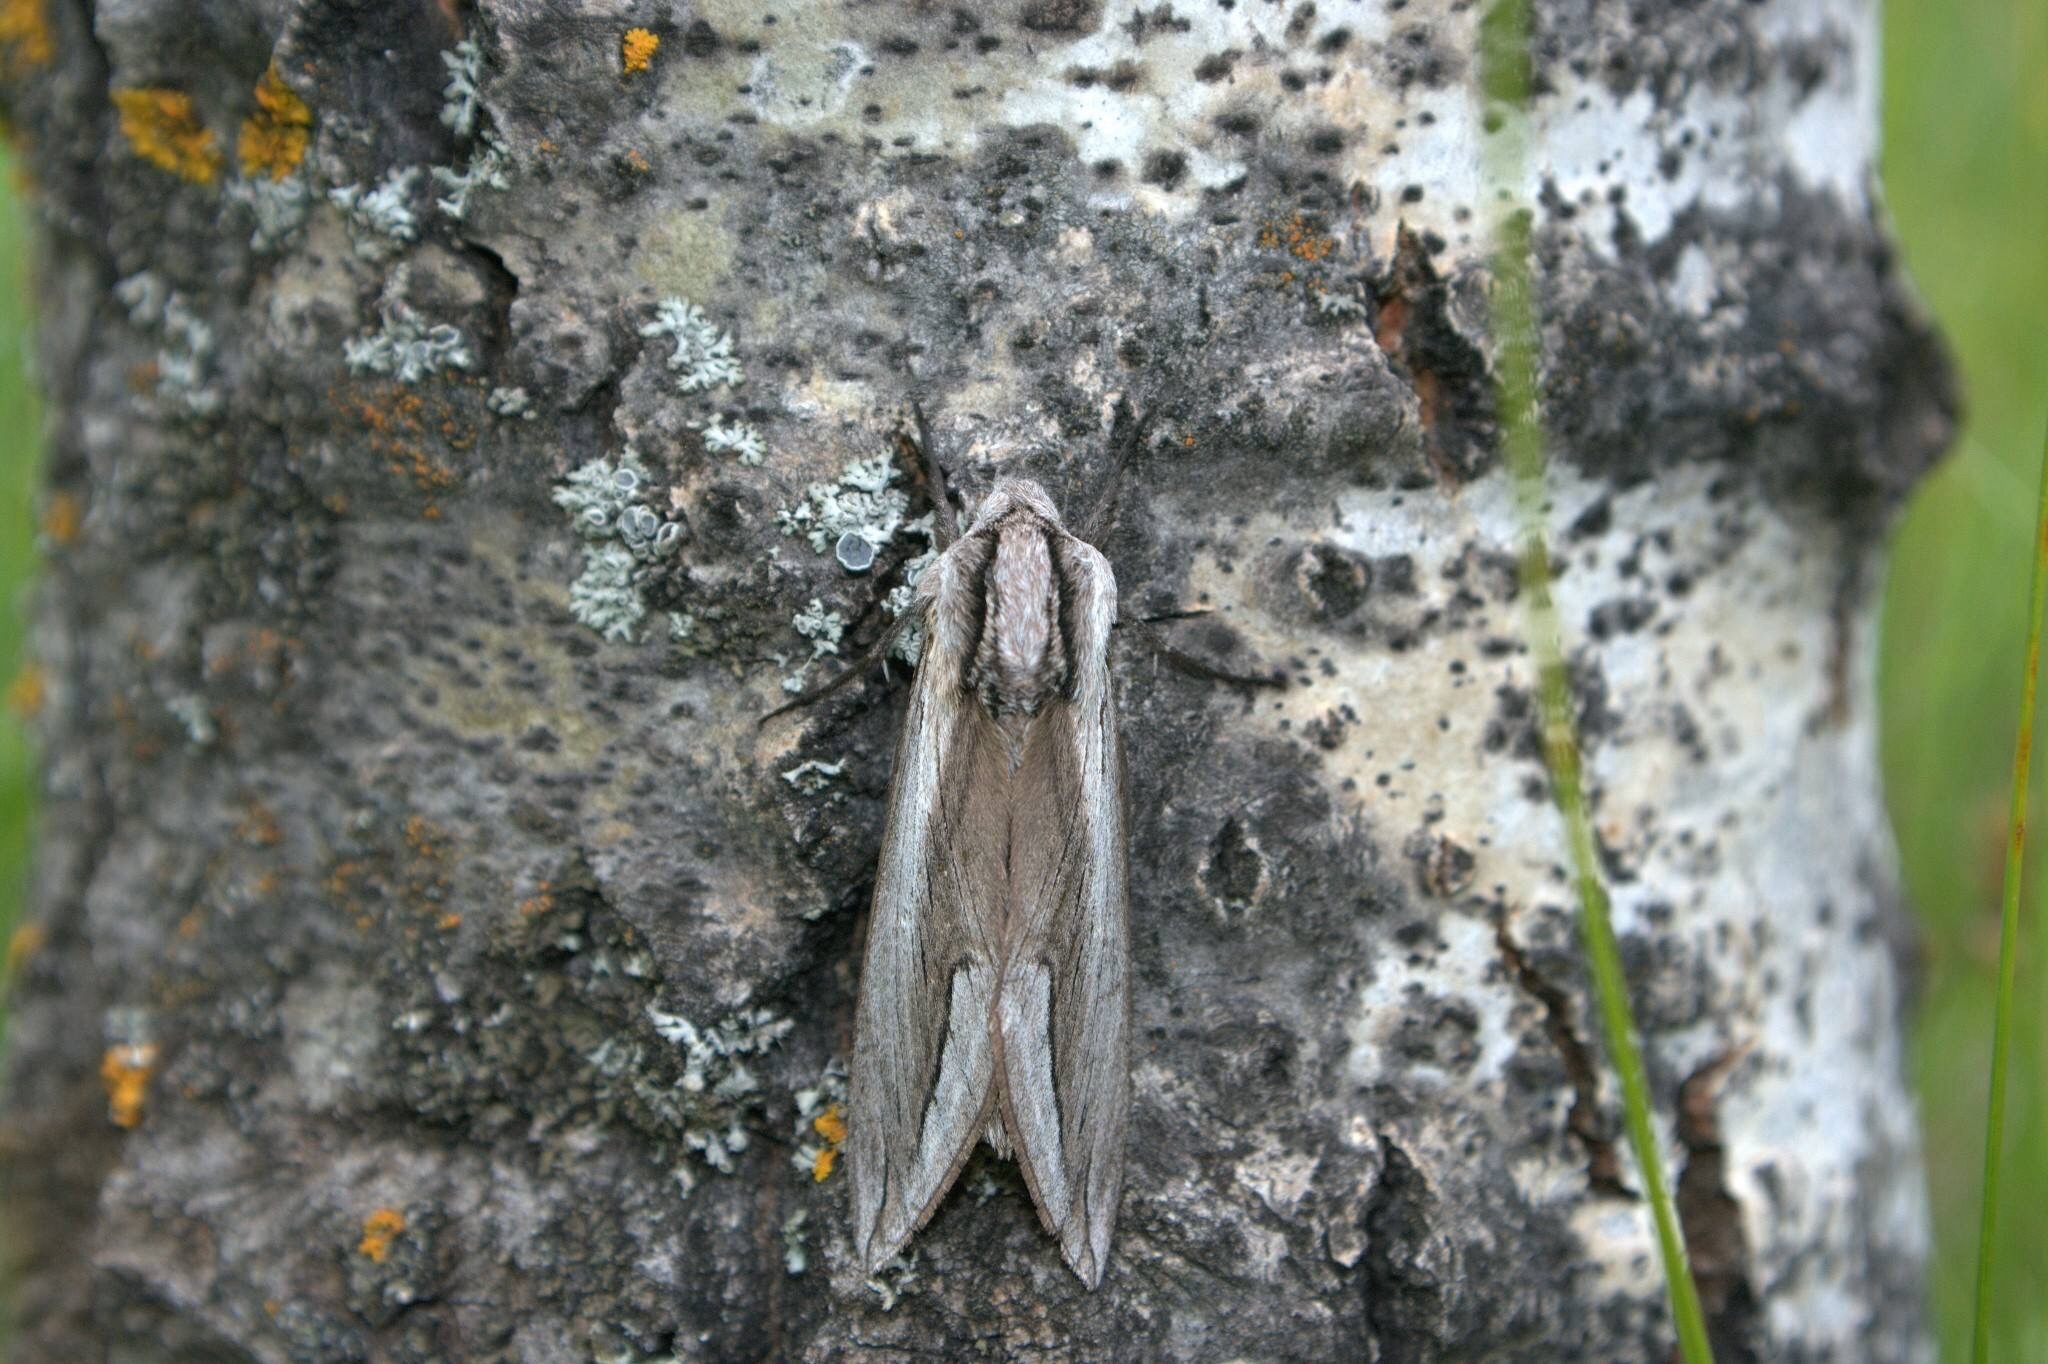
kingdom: Animalia
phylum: Arthropoda
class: Insecta
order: Lepidoptera
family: Sphingidae
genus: Sphinx
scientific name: Sphinx vashti
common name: Snowberry sphinx
